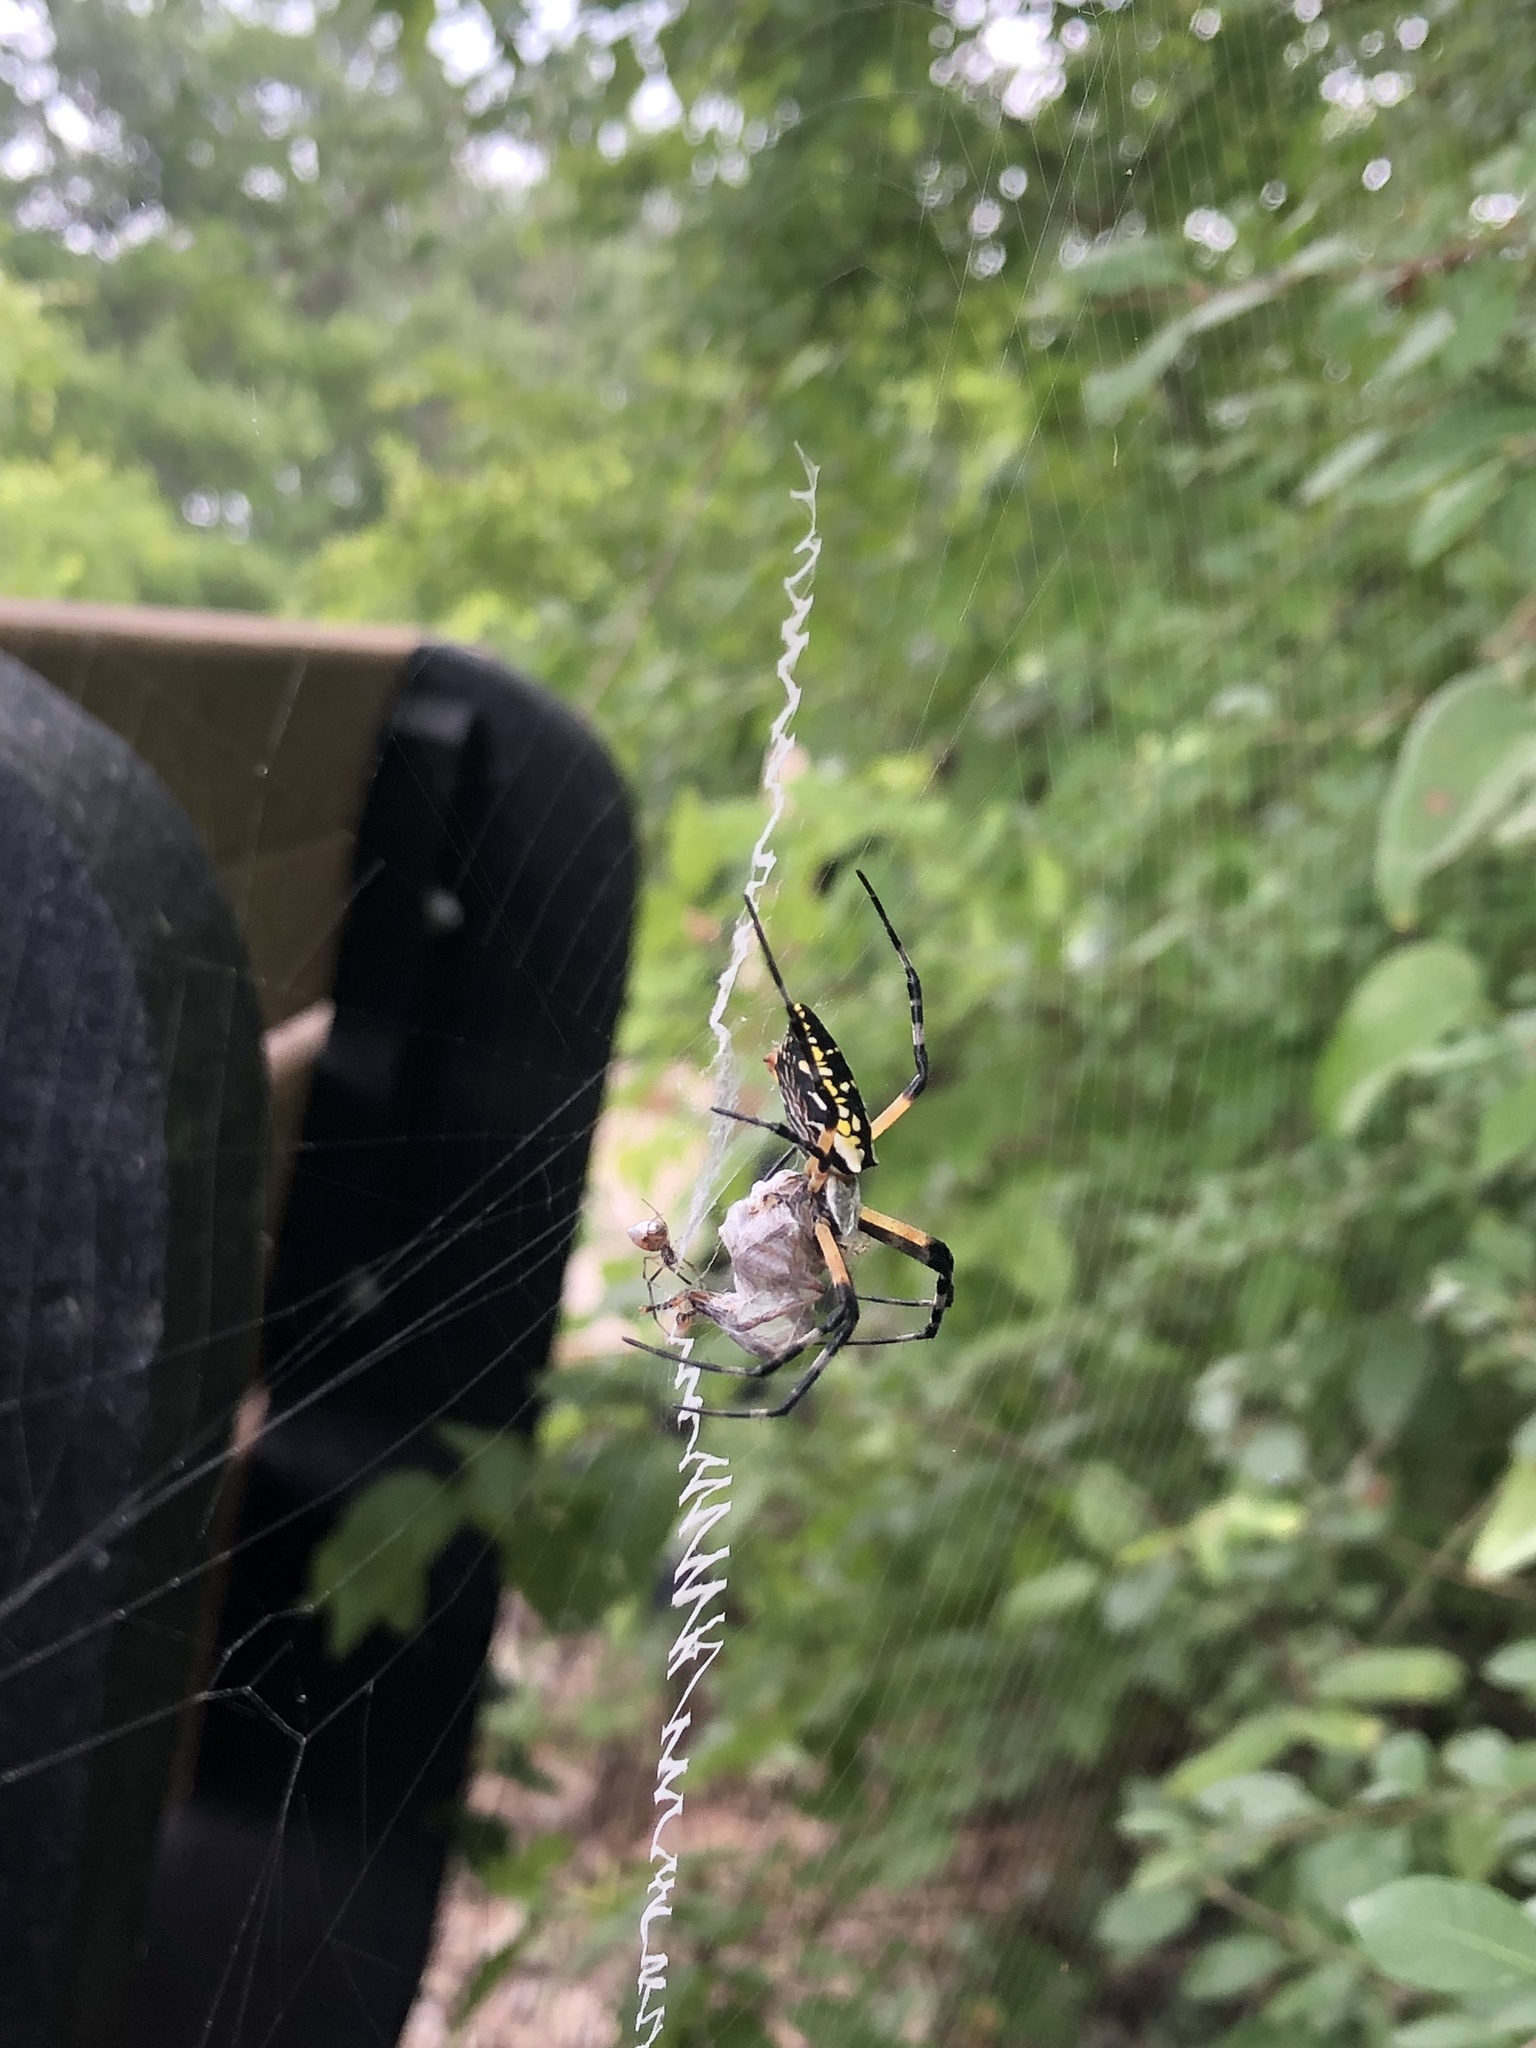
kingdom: Animalia
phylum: Arthropoda
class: Arachnida
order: Araneae
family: Araneidae
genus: Argiope
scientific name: Argiope aurantia
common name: Orb weavers
